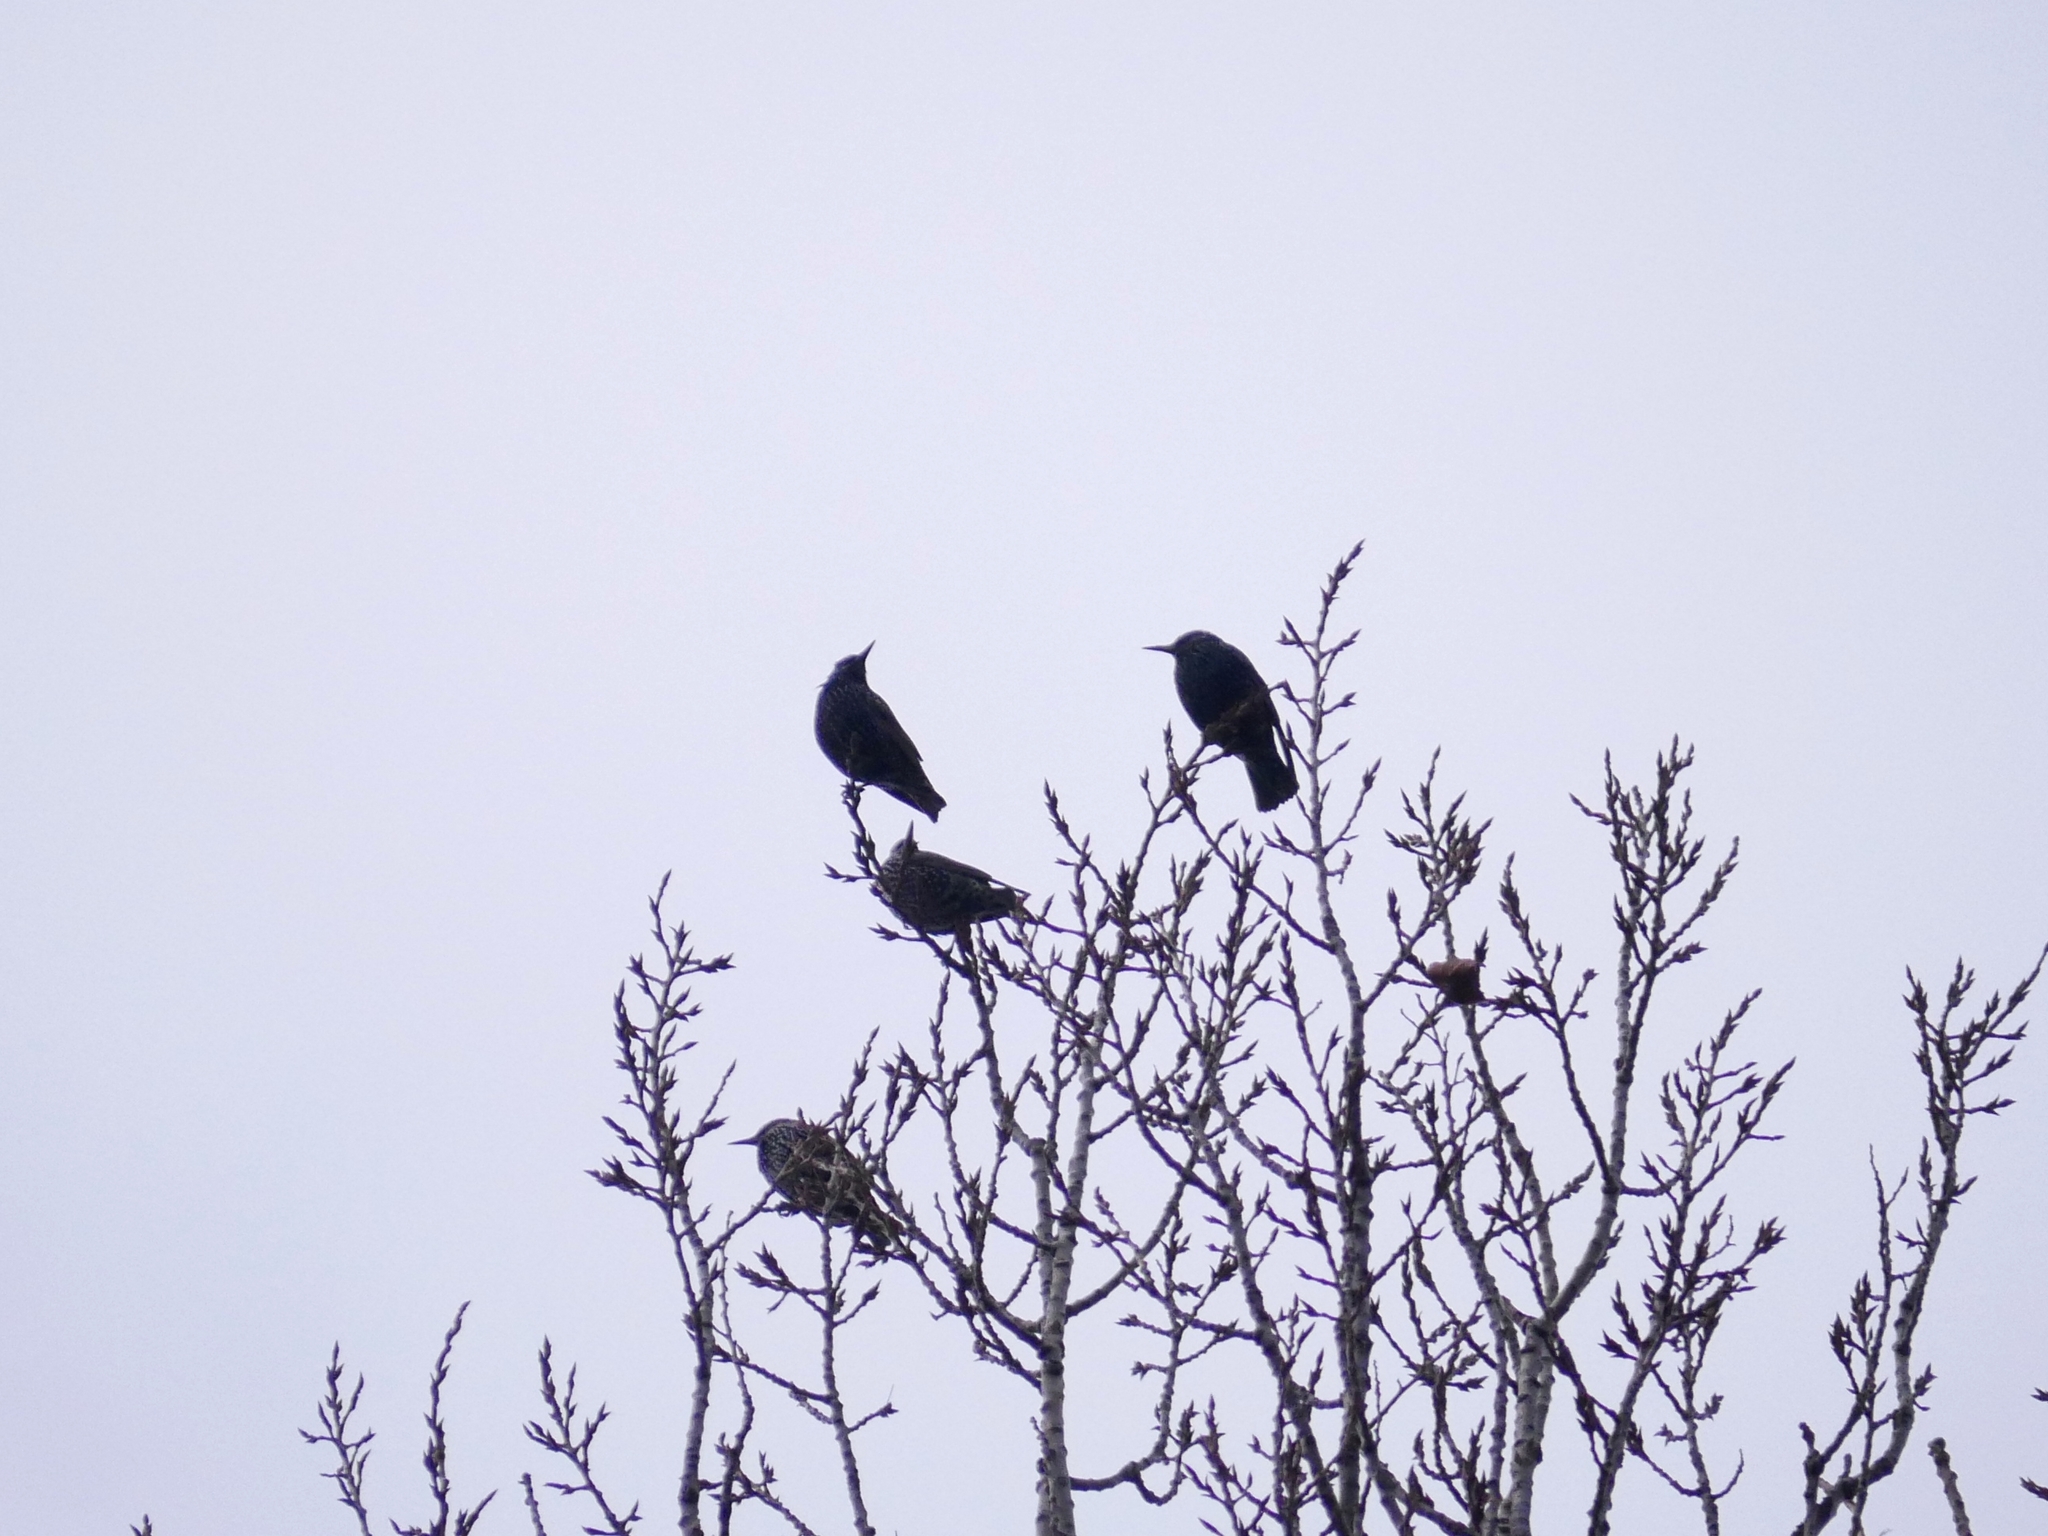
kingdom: Animalia
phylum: Chordata
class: Aves
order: Passeriformes
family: Sturnidae
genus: Sturnus
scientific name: Sturnus vulgaris
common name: Common starling
